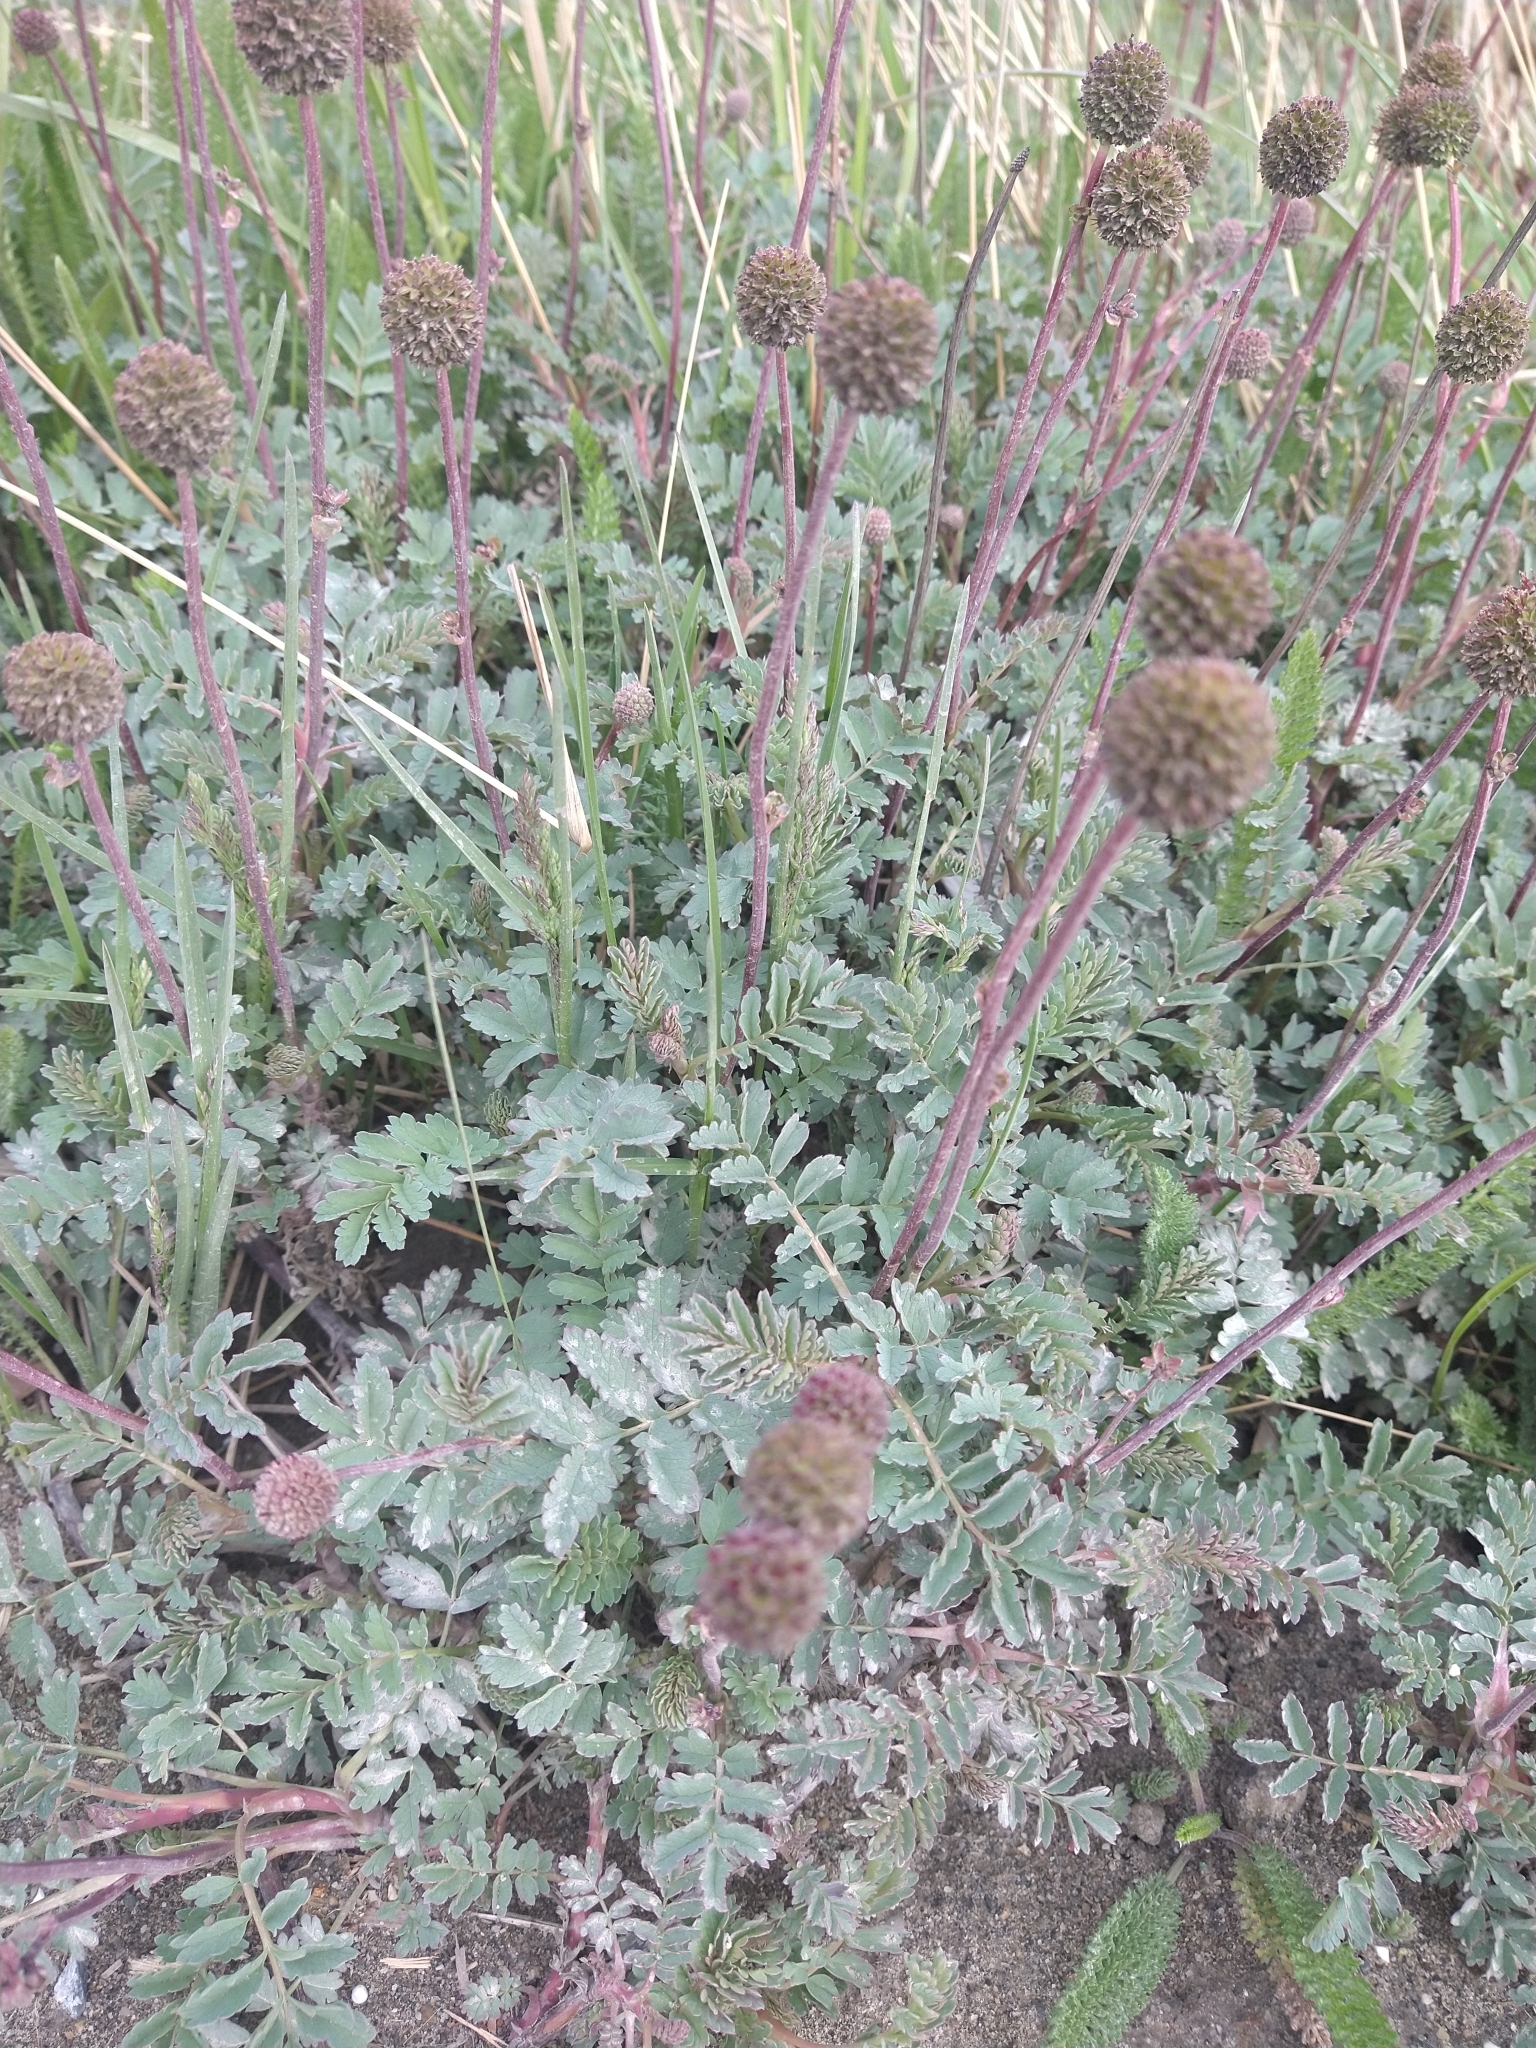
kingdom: Plantae
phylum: Tracheophyta
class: Magnoliopsida
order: Rosales
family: Rosaceae
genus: Acaena
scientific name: Acaena magellanica
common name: New zealand burr
